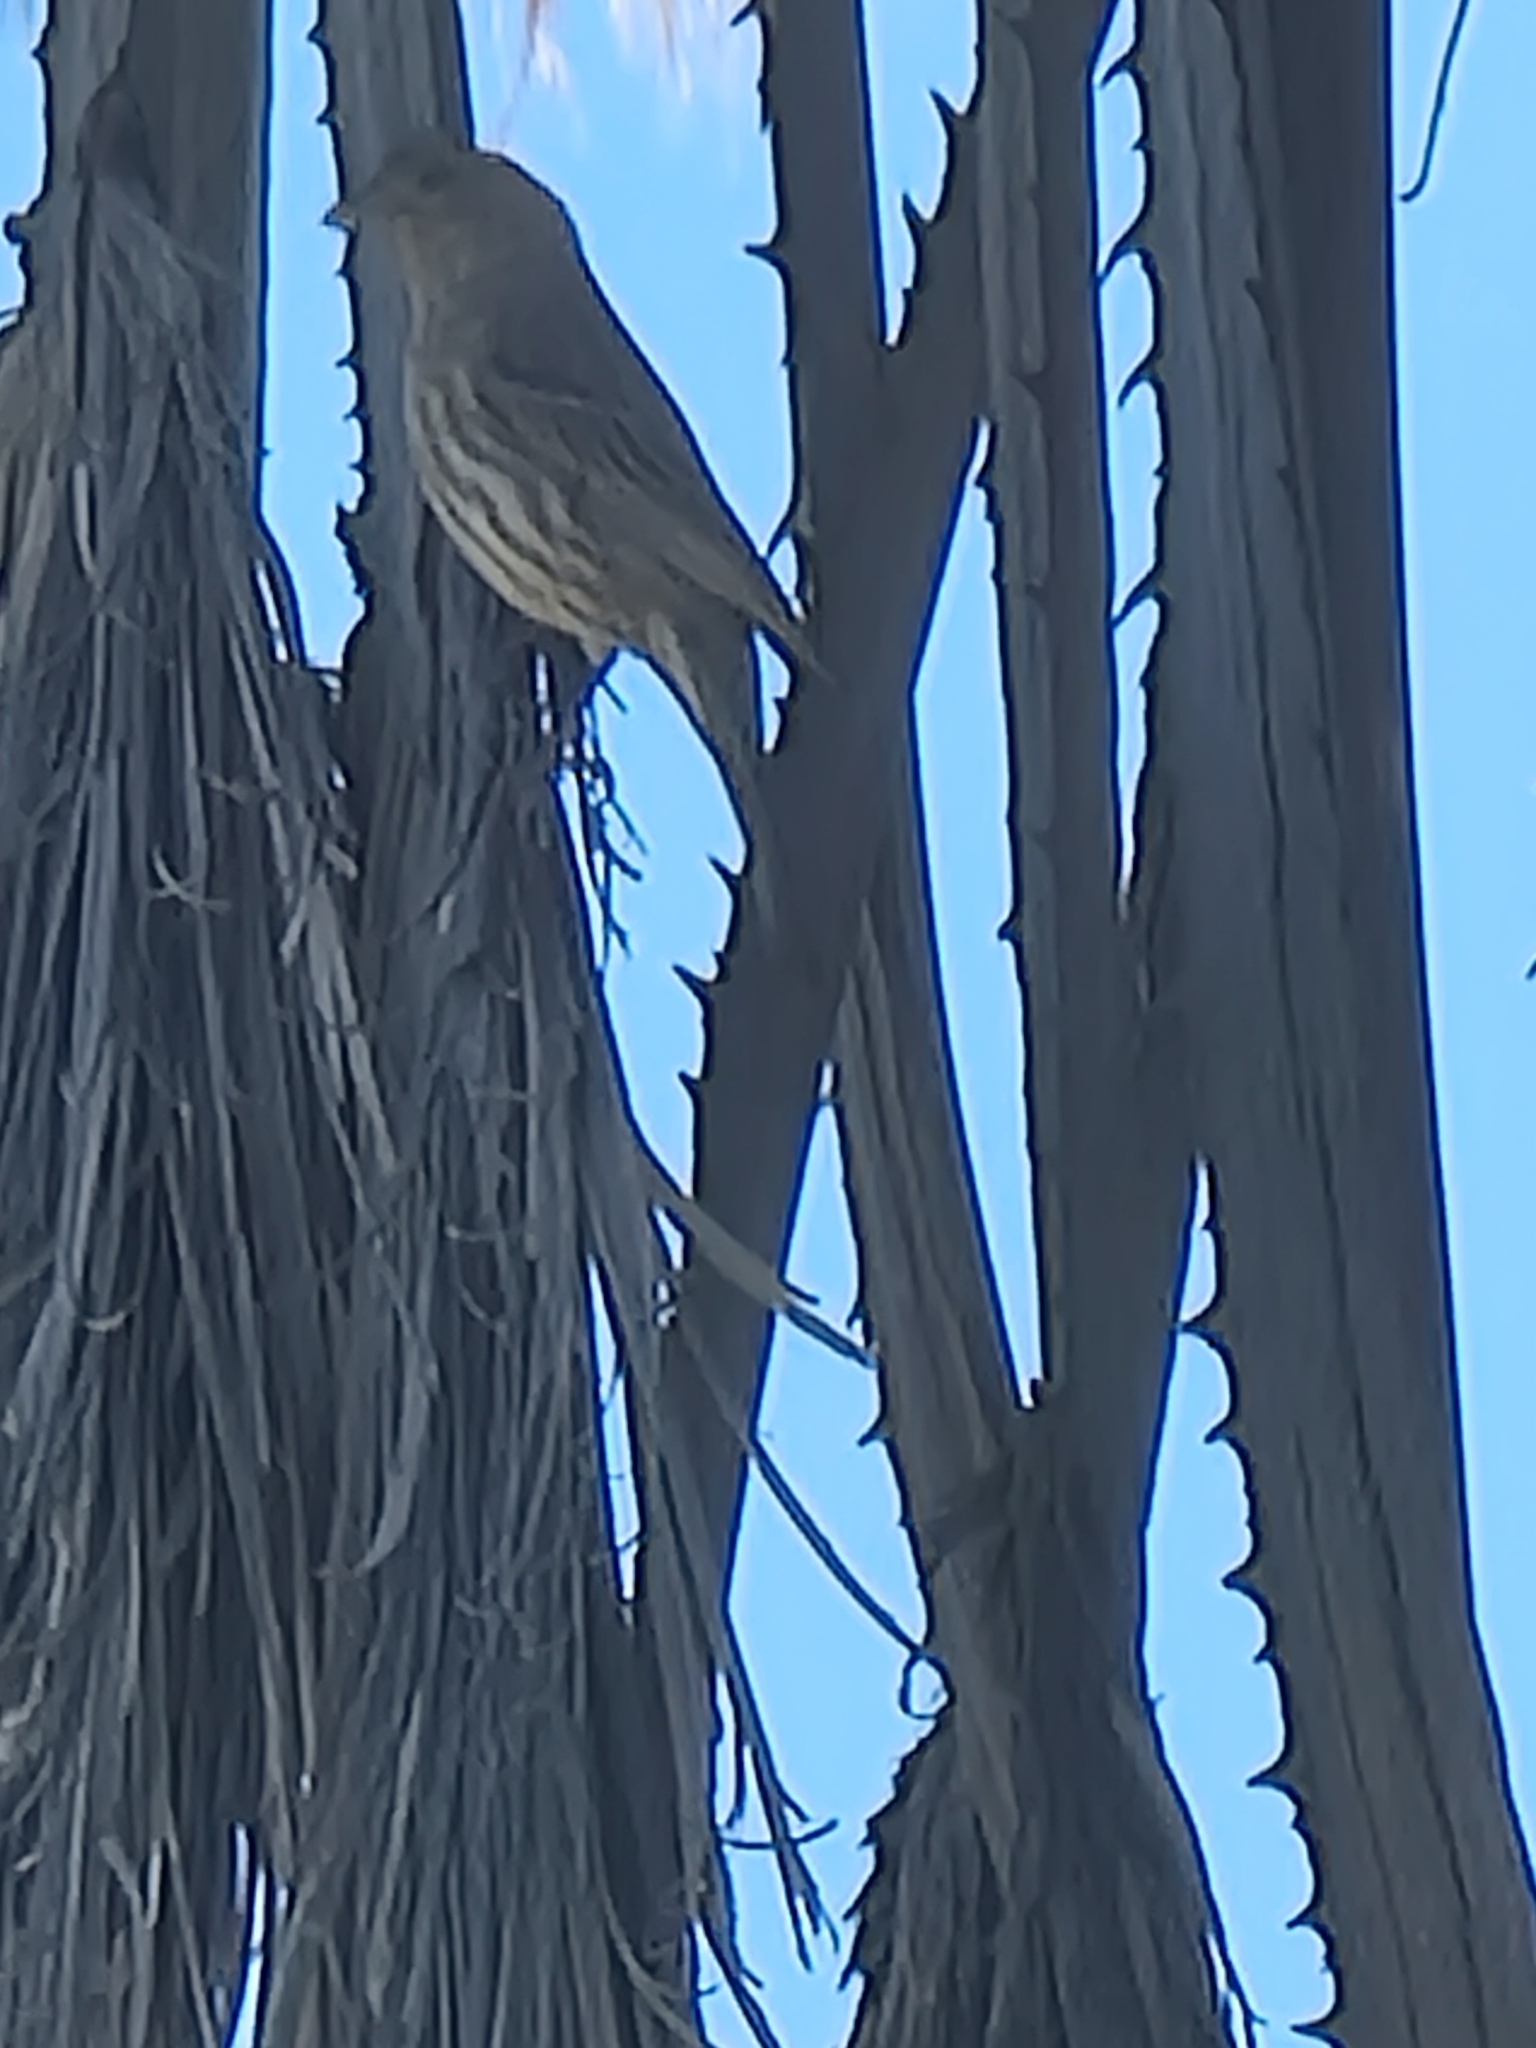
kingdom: Animalia
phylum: Chordata
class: Aves
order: Passeriformes
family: Fringillidae
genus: Haemorhous
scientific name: Haemorhous mexicanus
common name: House finch
